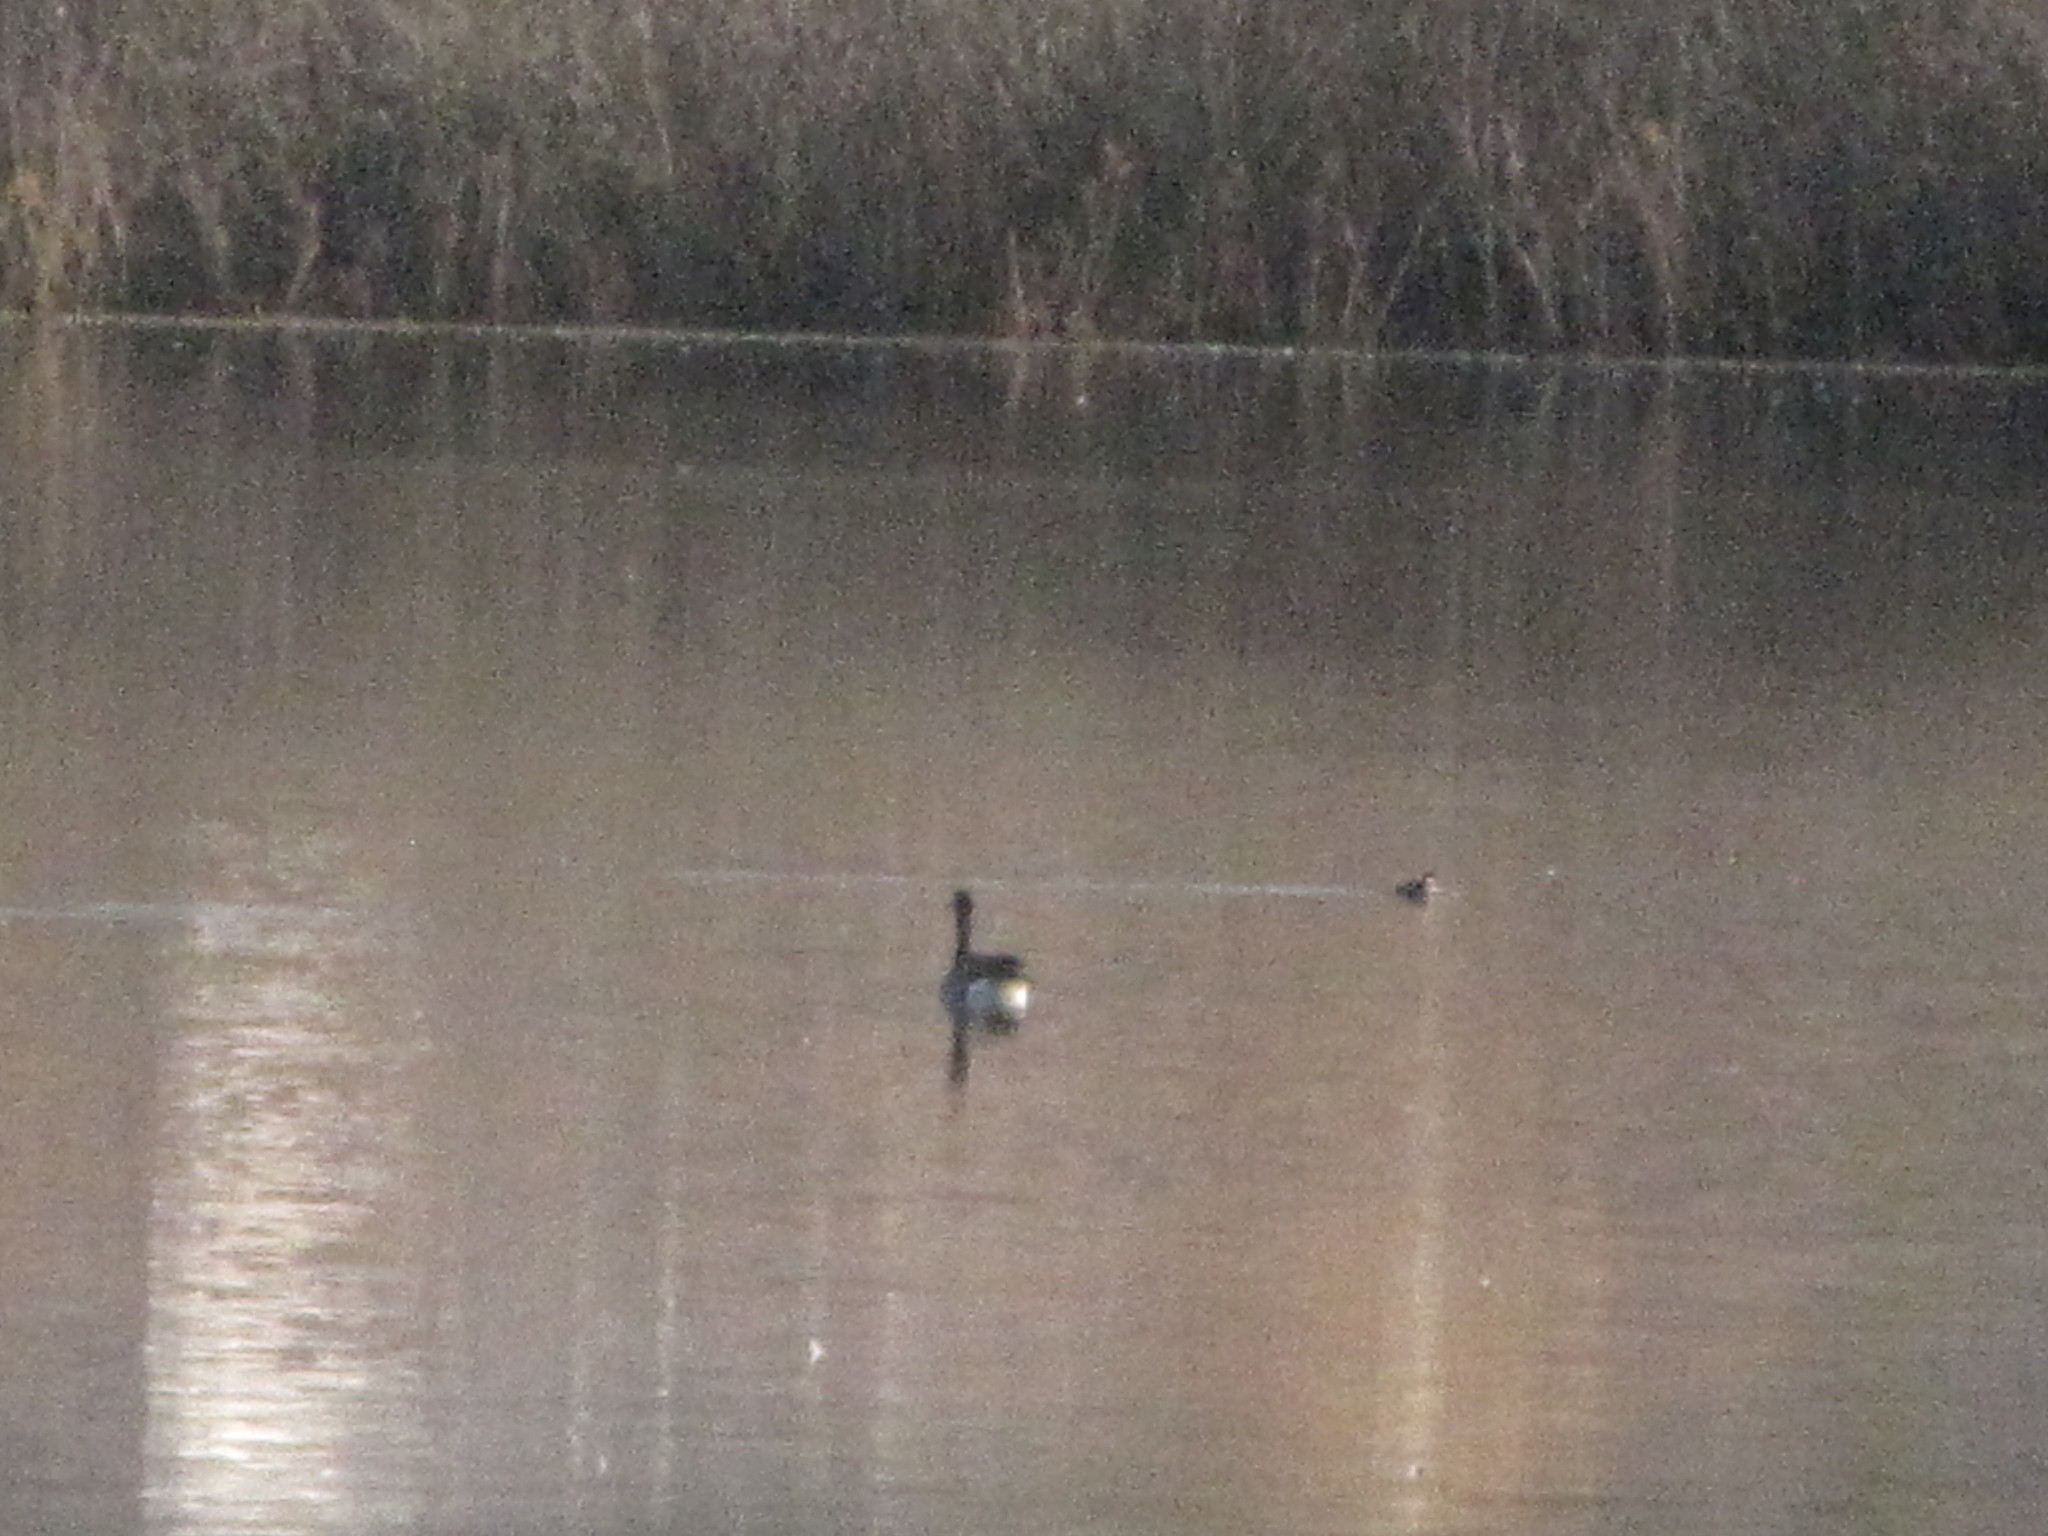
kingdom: Animalia
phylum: Chordata
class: Aves
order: Anseriformes
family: Anatidae
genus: Branta
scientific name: Branta canadensis
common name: Canada goose
